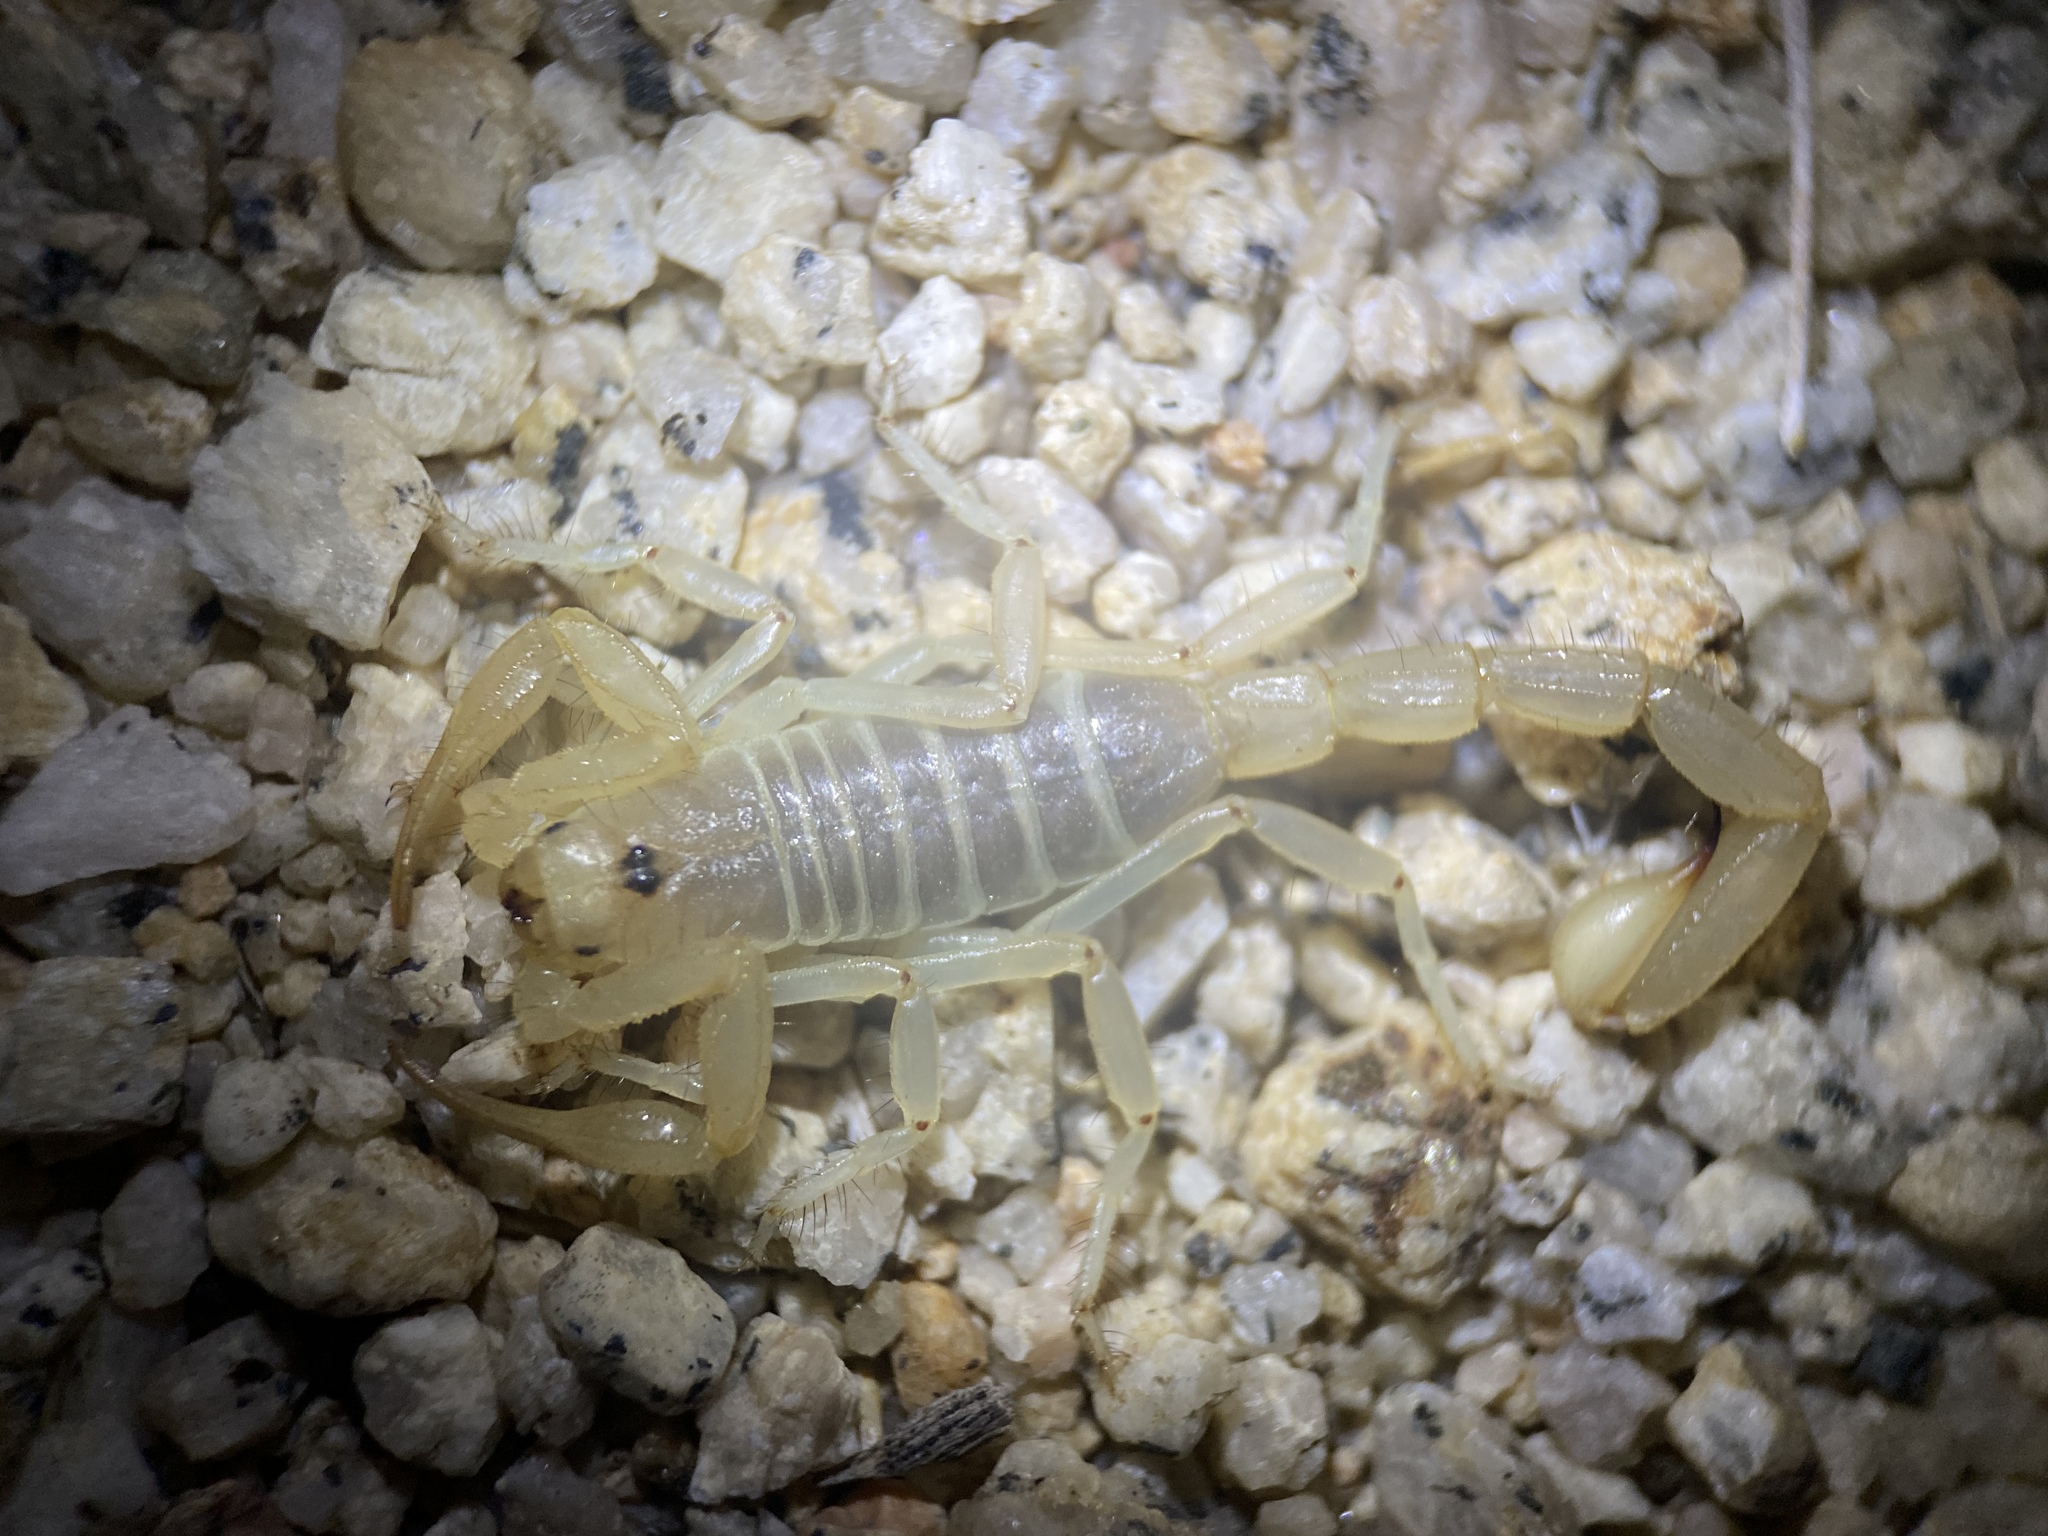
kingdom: Animalia
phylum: Arthropoda
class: Arachnida
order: Scorpiones
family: Vaejovidae
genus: Paruroctonus
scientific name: Paruroctonus becki
